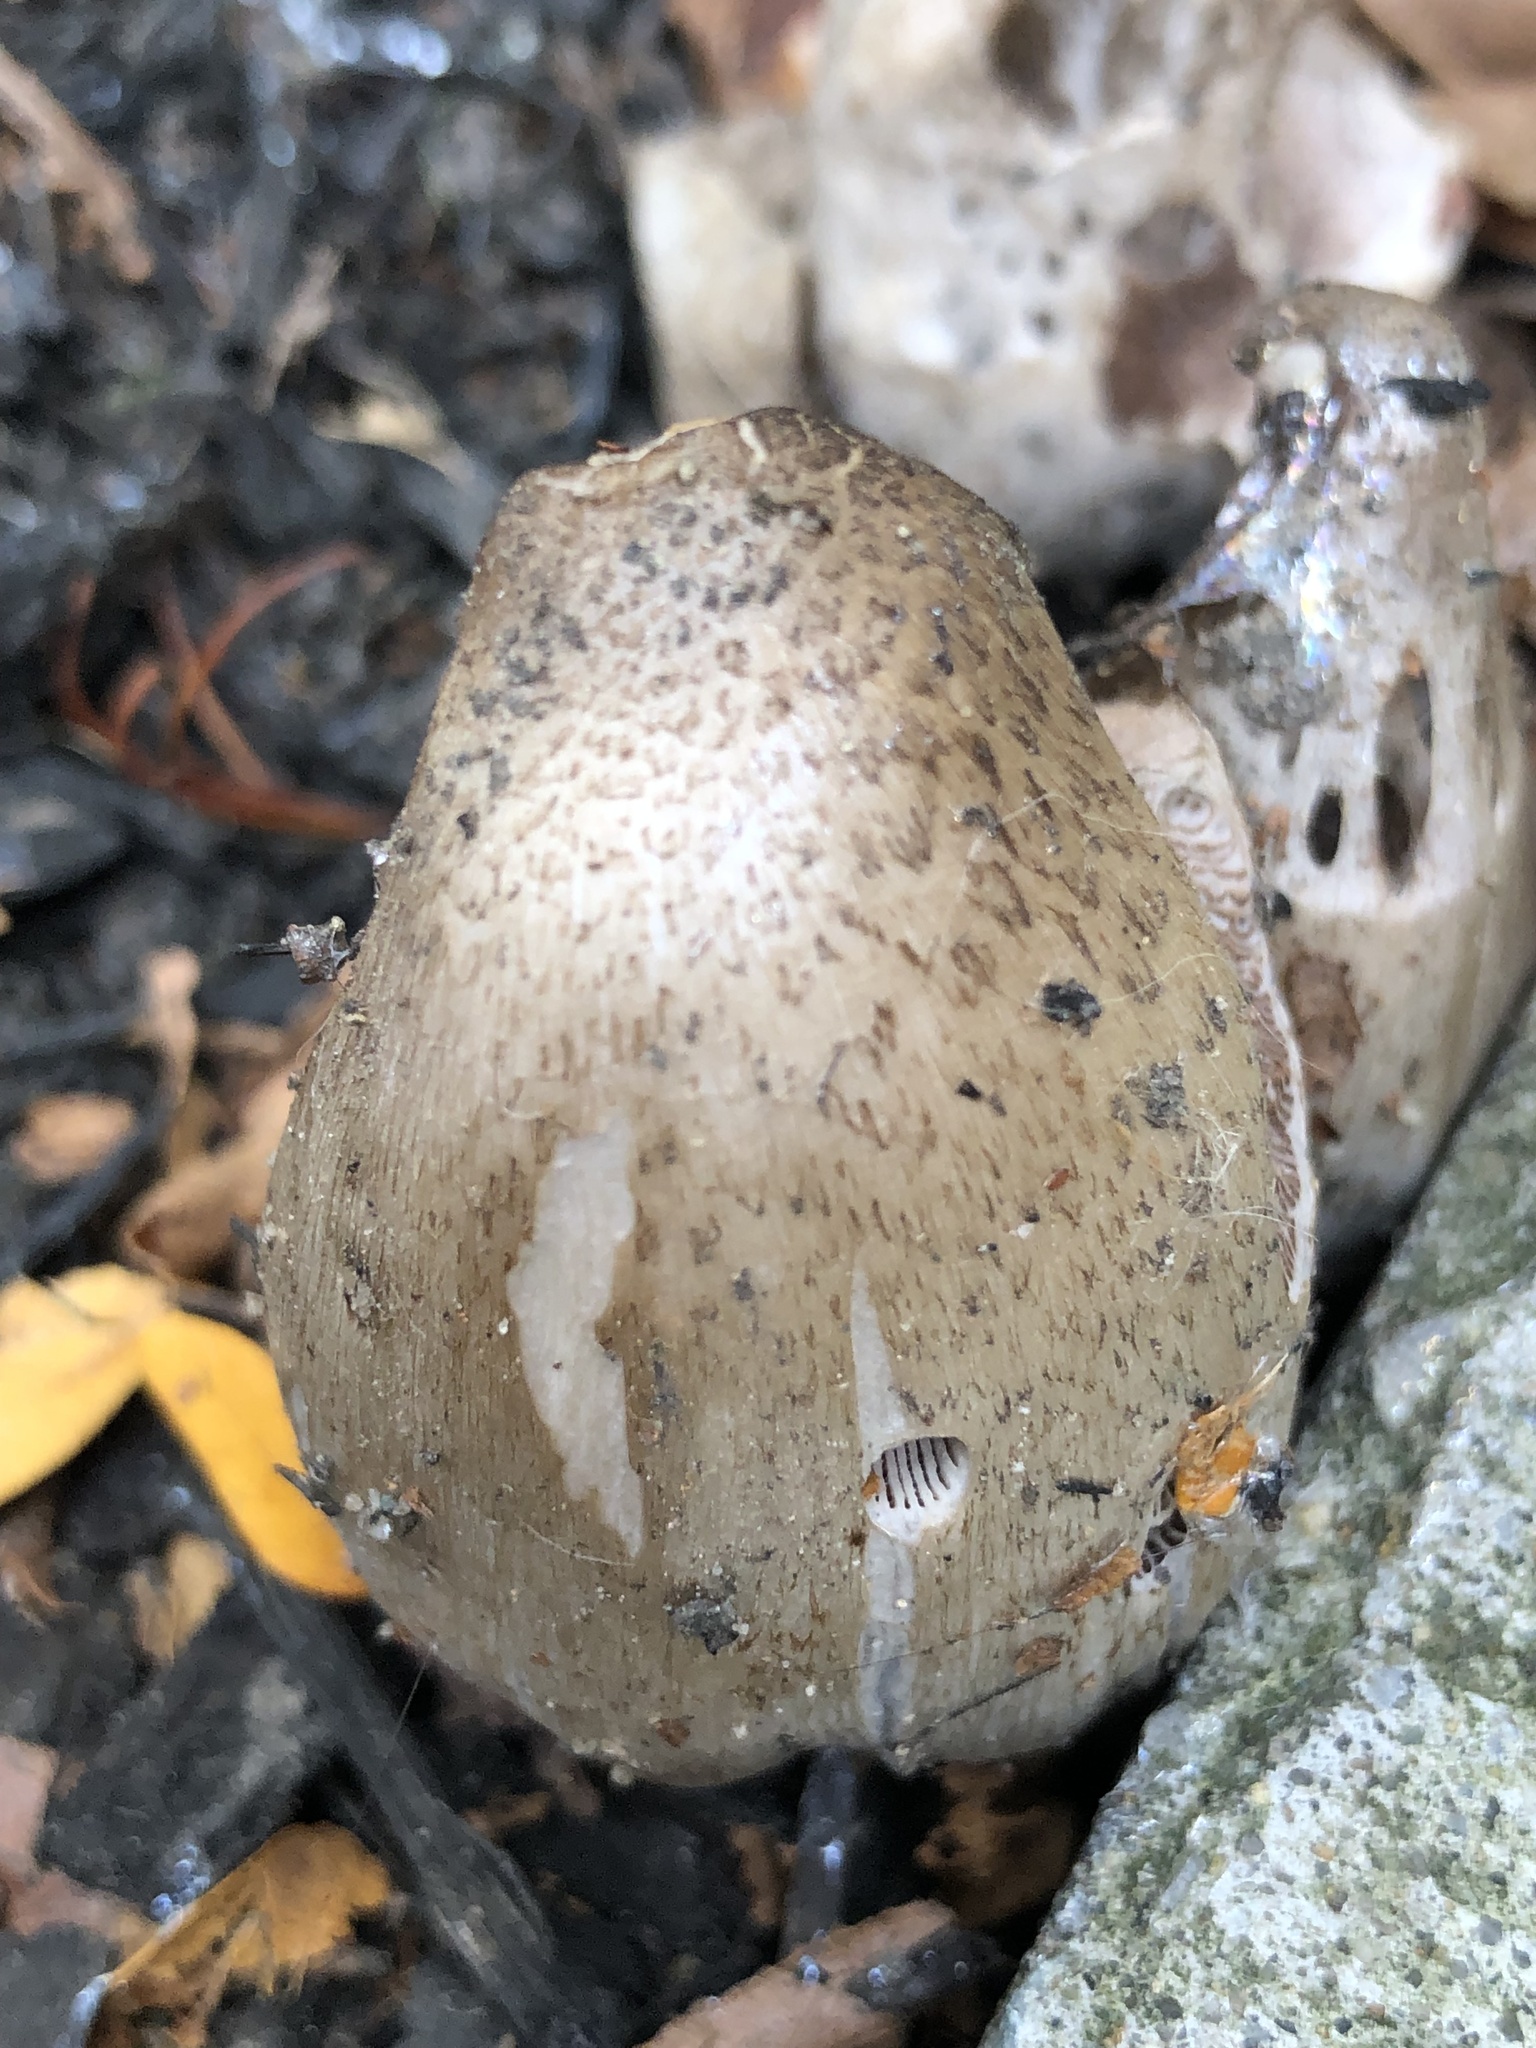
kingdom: Fungi
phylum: Basidiomycota
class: Agaricomycetes
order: Agaricales
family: Psathyrellaceae
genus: Coprinopsis
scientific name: Coprinopsis atramentaria
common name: Common ink-cap
